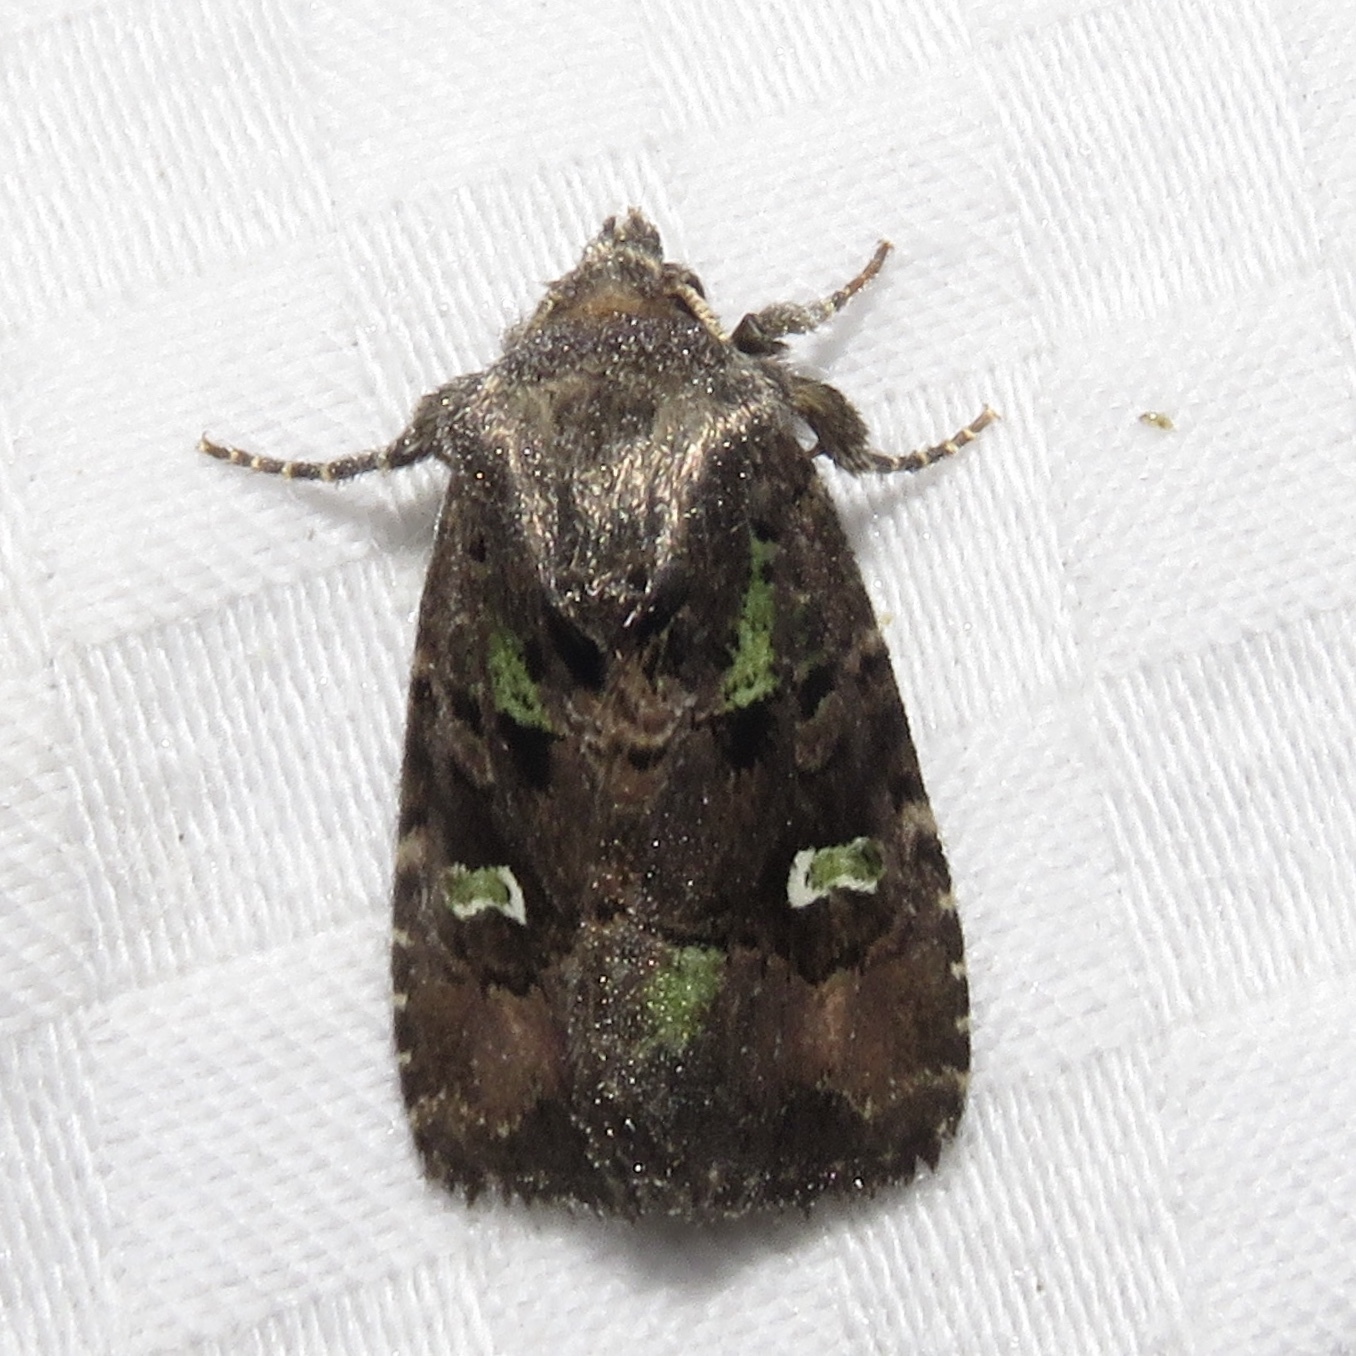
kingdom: Animalia
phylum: Arthropoda
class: Insecta
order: Lepidoptera
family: Noctuidae
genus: Lacinipolia
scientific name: Lacinipolia renigera
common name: Kidney-spotted minor
